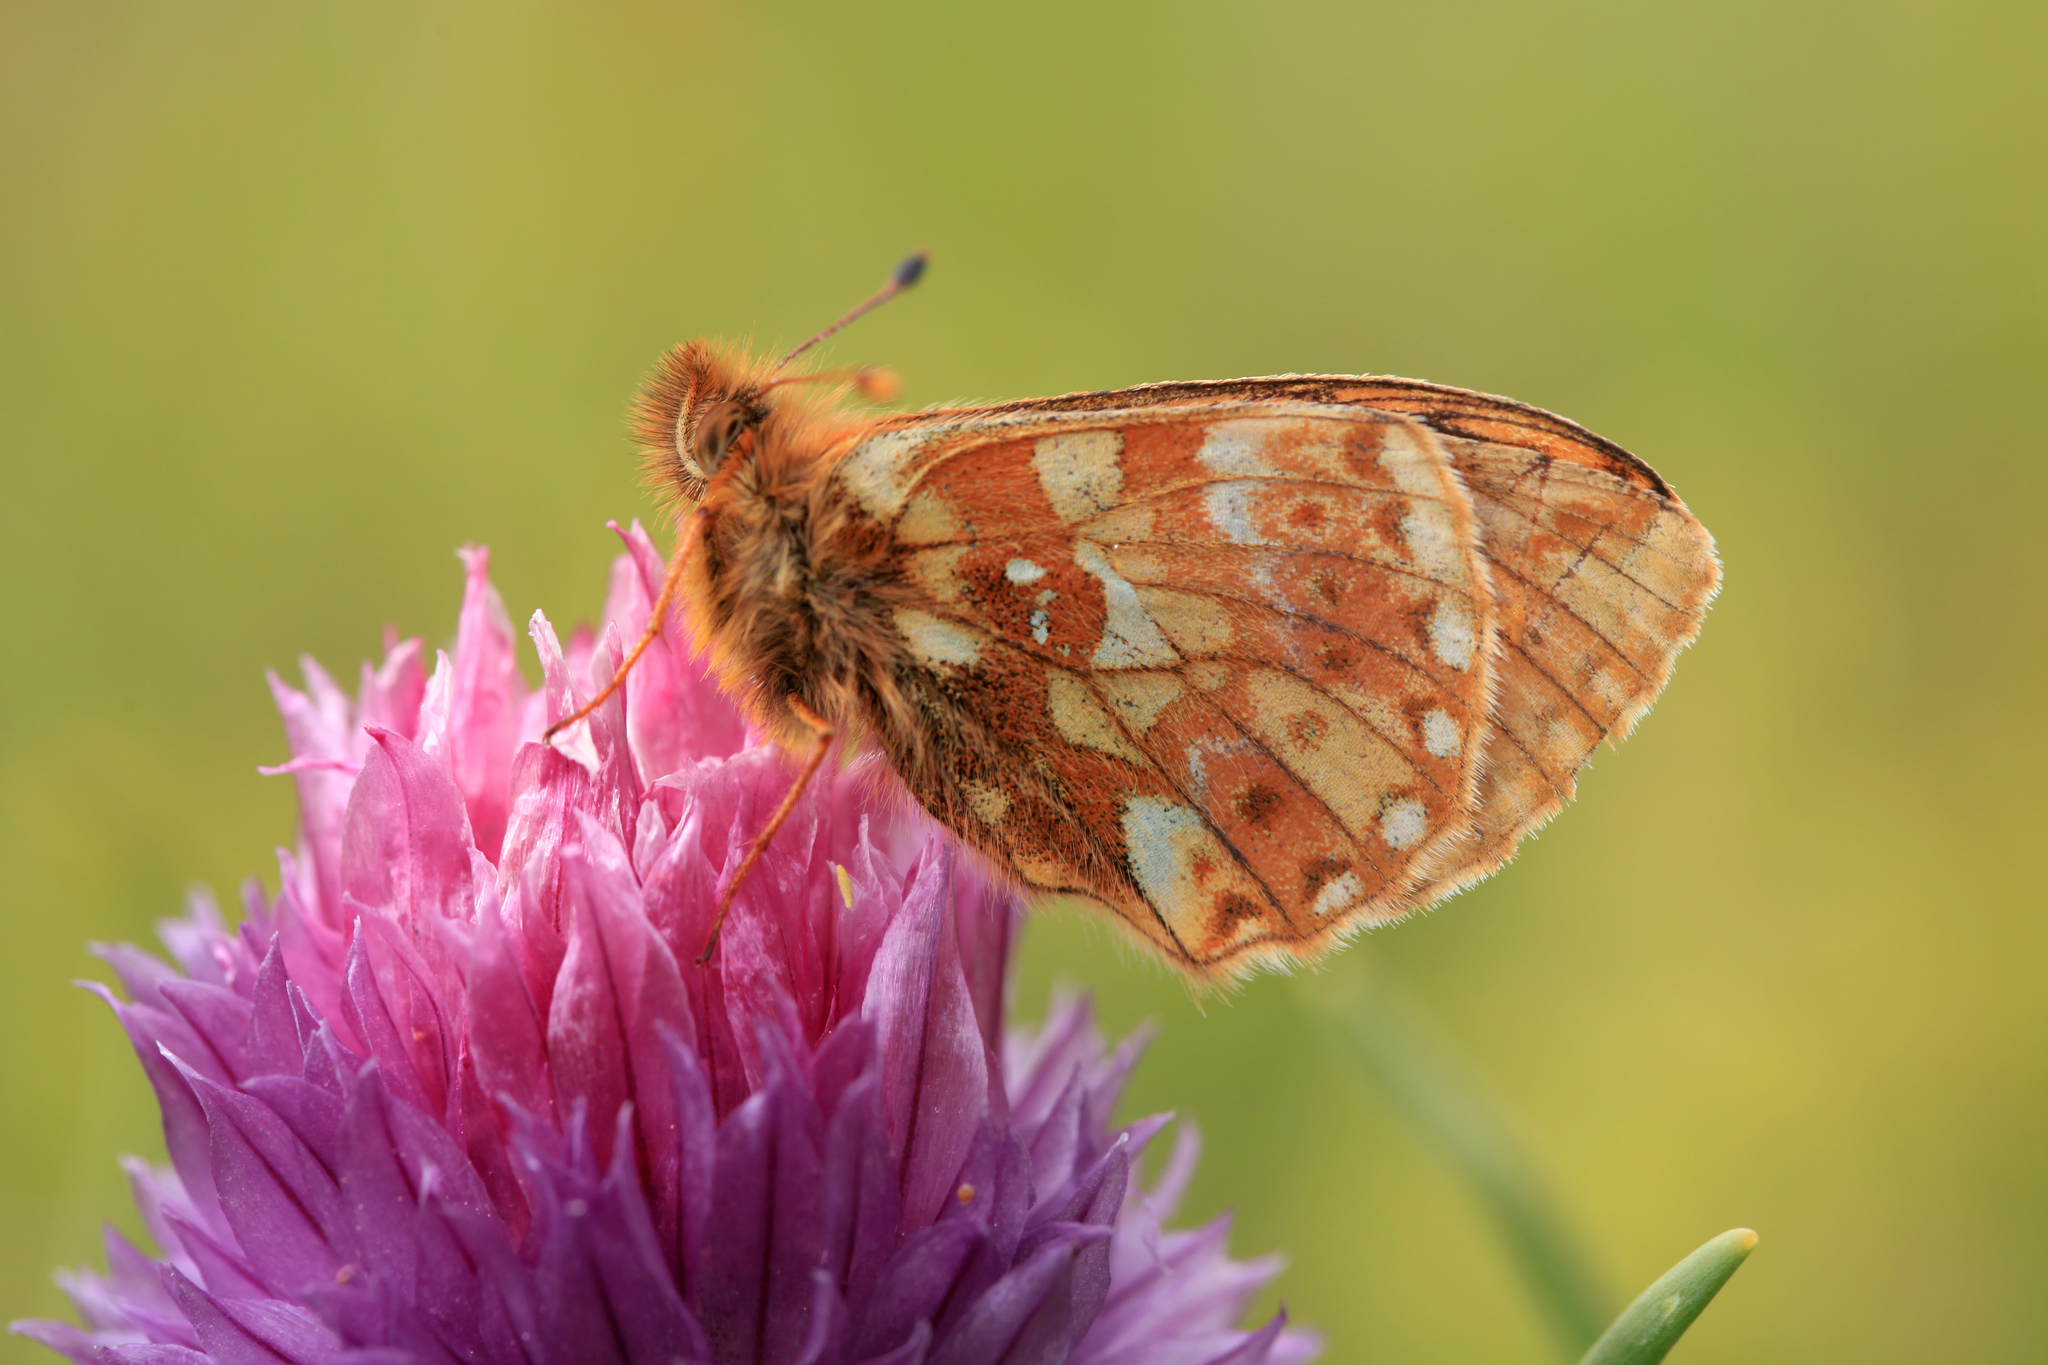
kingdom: Animalia
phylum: Arthropoda
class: Insecta
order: Lepidoptera
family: Nymphalidae
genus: Boloria
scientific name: Boloria
